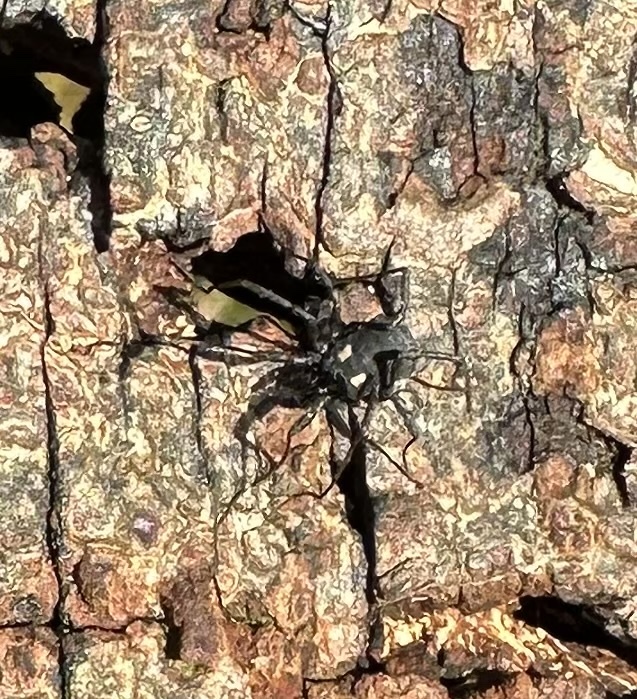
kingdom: Animalia
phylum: Arthropoda
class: Arachnida
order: Opiliones
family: Nemastomatidae
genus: Nemastoma
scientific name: Nemastoma bimaculatum
